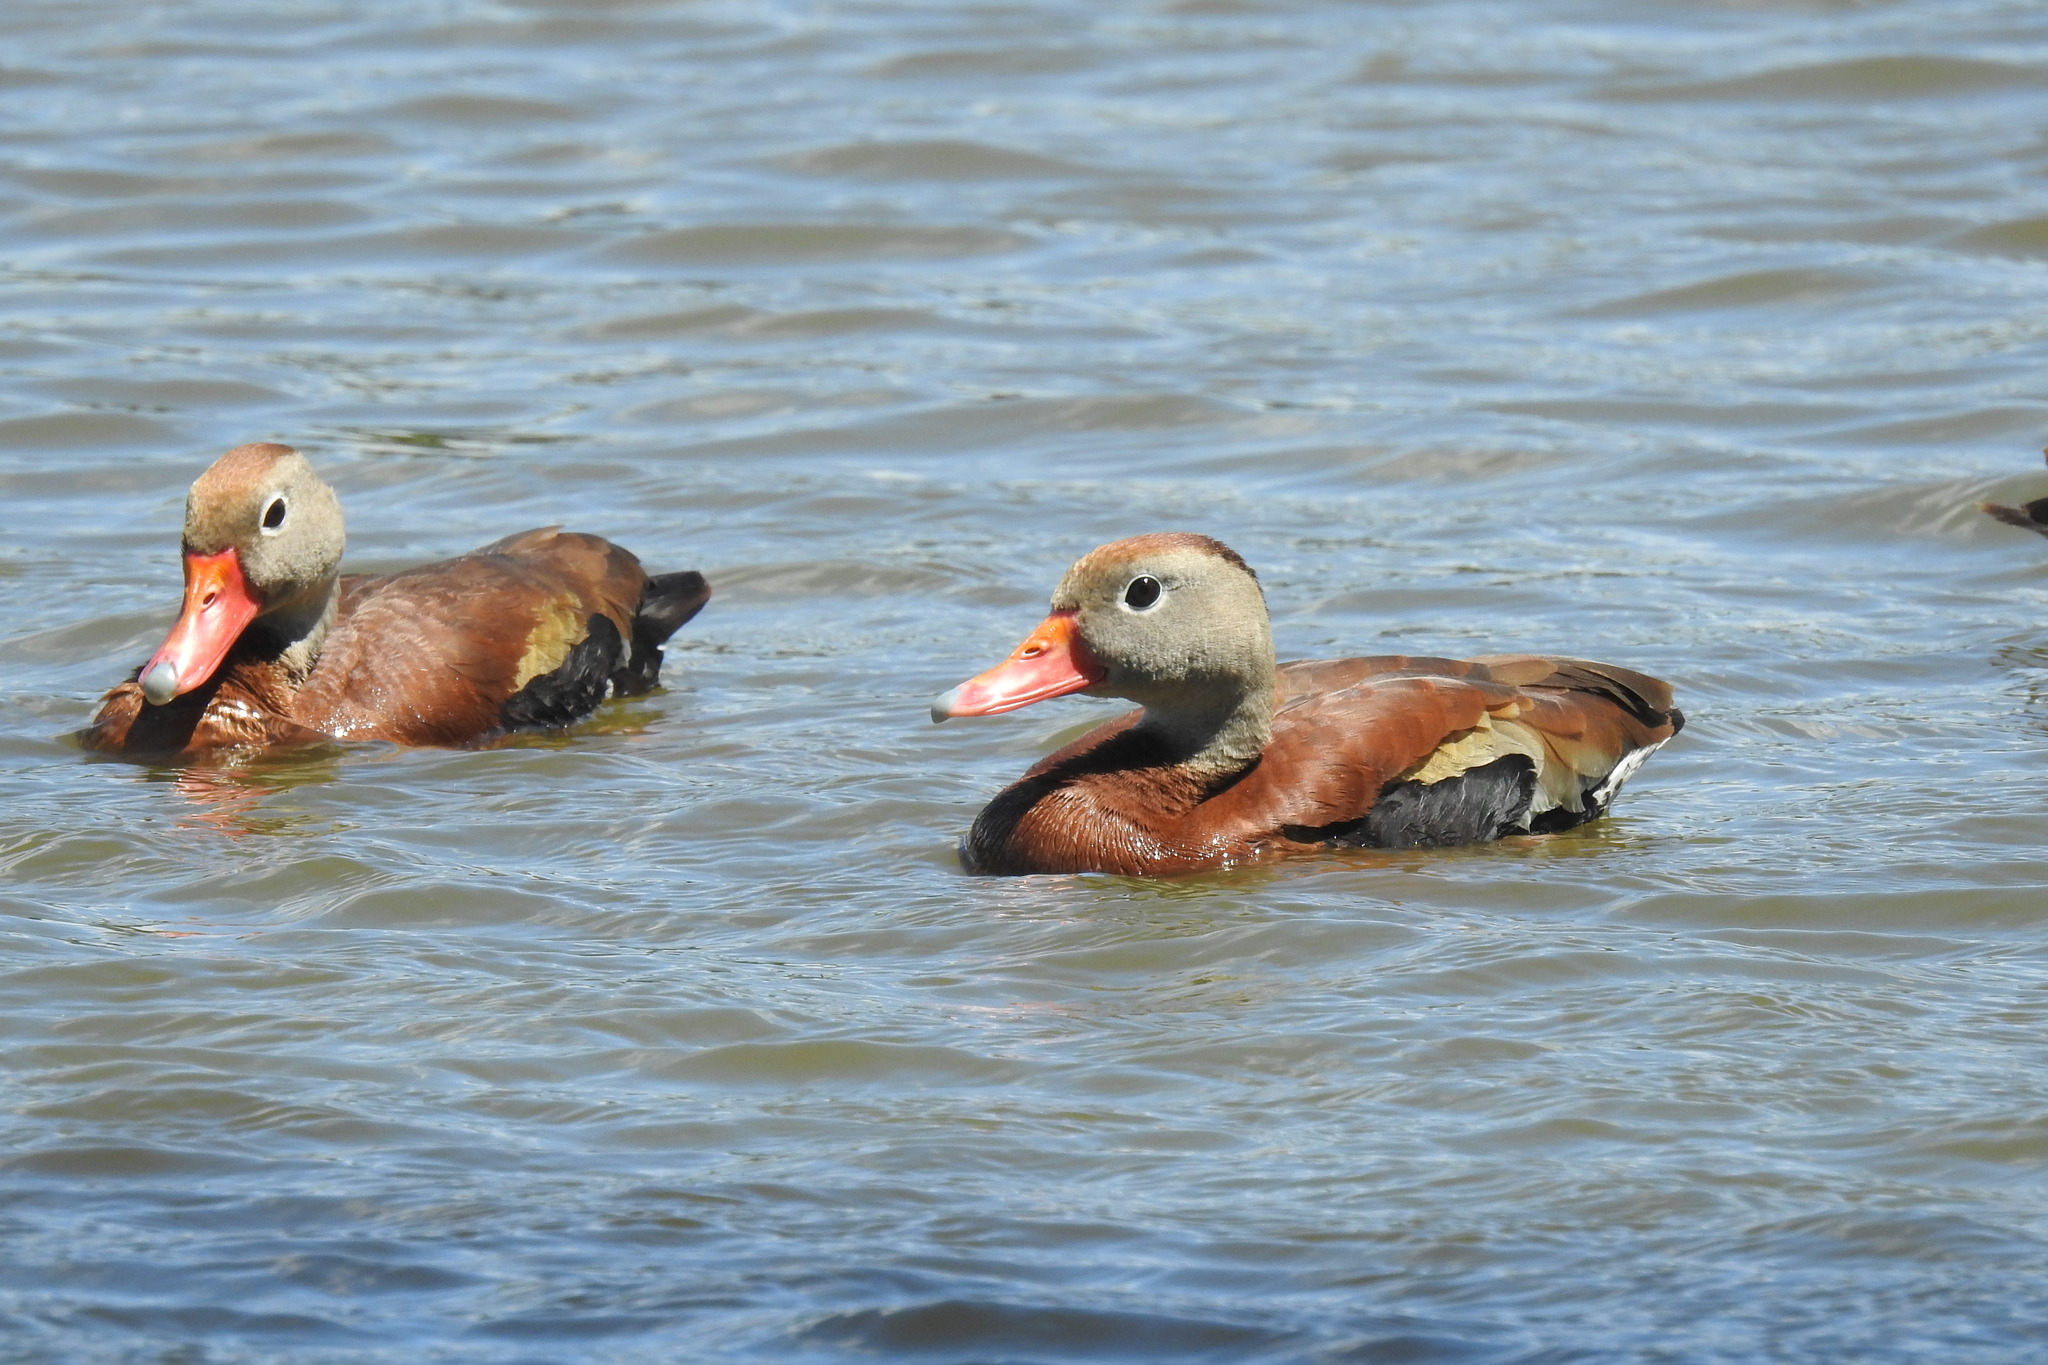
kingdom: Animalia
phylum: Chordata
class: Aves
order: Anseriformes
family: Anatidae
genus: Dendrocygna
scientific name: Dendrocygna autumnalis
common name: Black-bellied whistling duck
